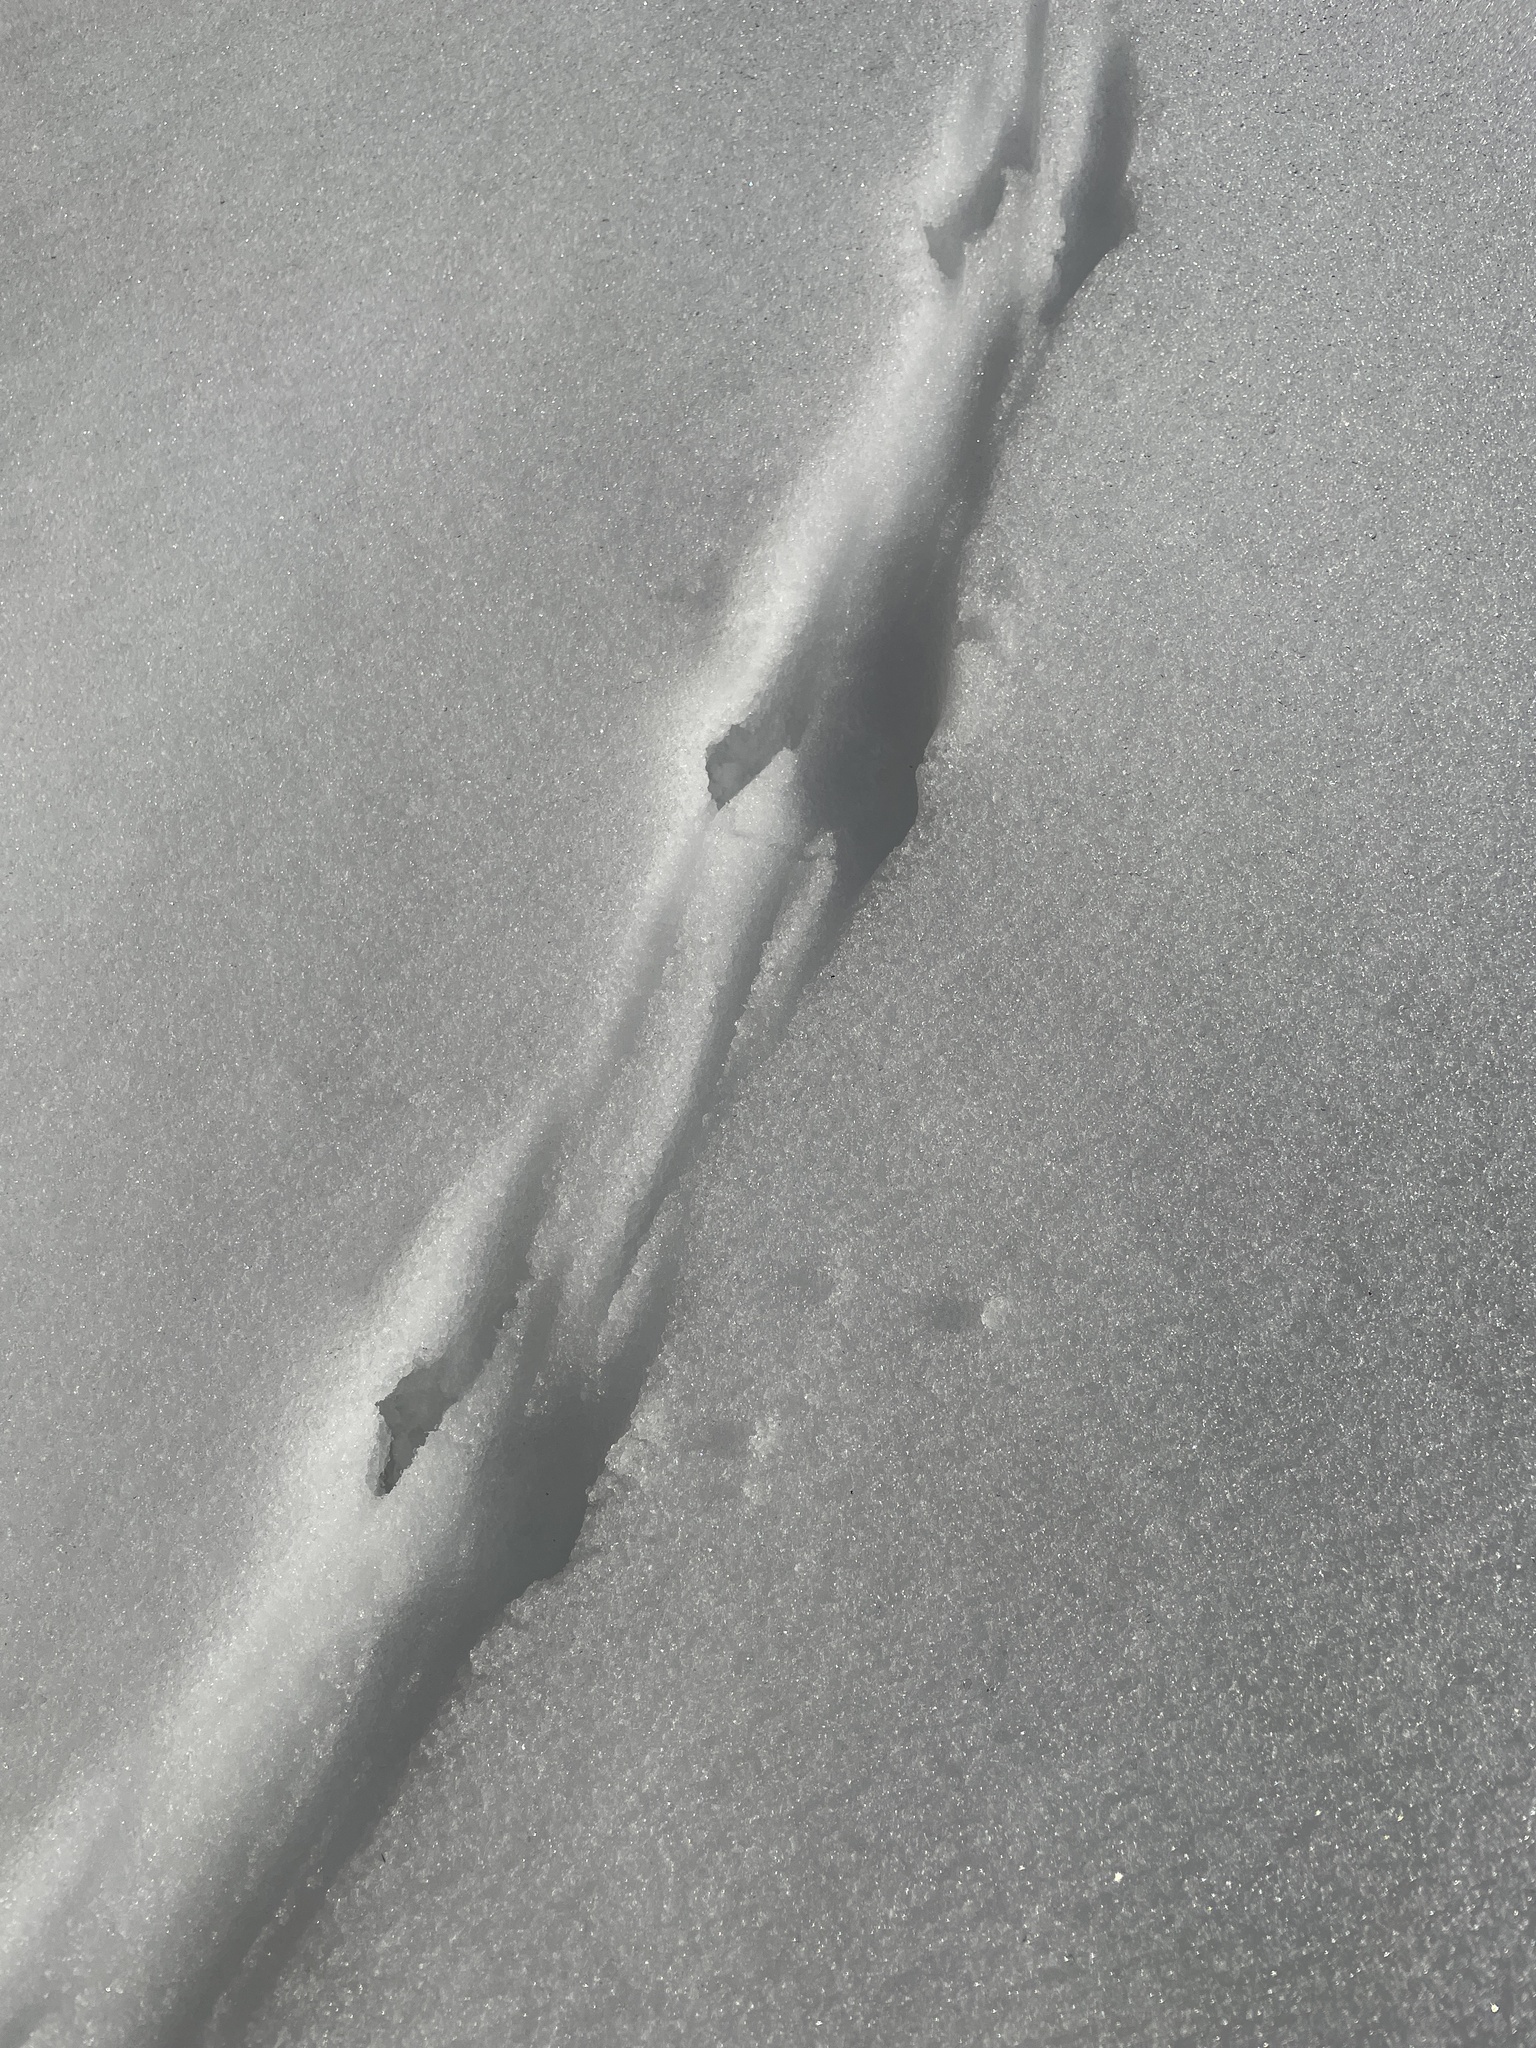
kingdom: Animalia
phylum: Chordata
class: Mammalia
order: Rodentia
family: Sciuridae
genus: Tamiasciurus
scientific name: Tamiasciurus hudsonicus
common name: Red squirrel
